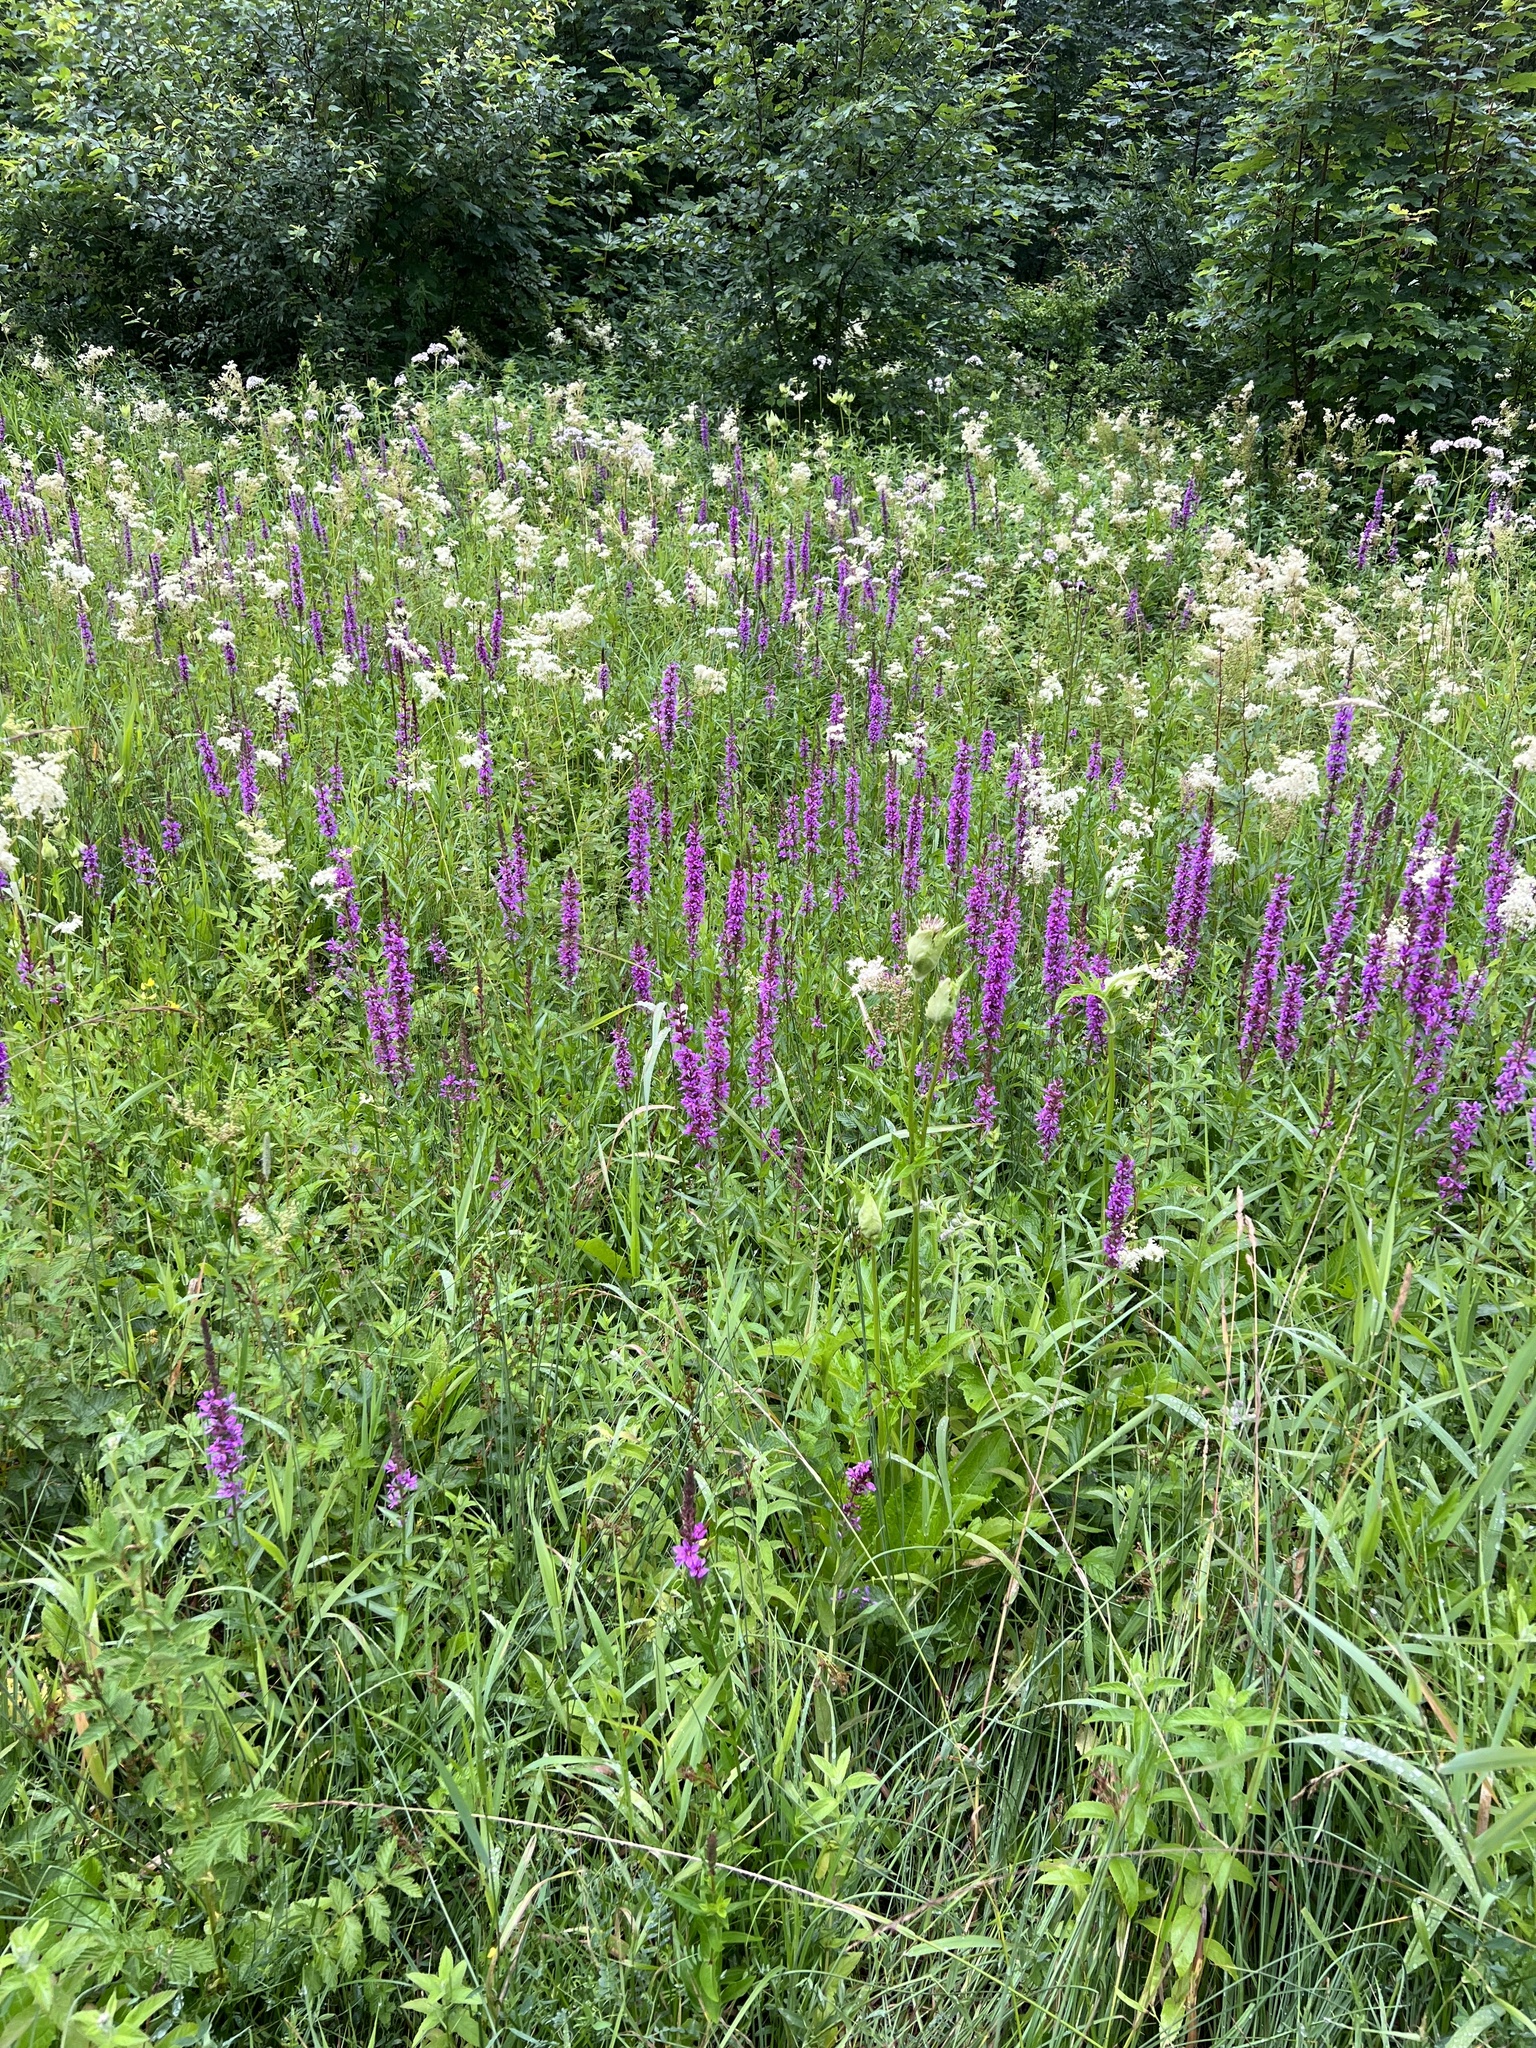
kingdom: Plantae
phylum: Tracheophyta
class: Magnoliopsida
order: Myrtales
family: Lythraceae
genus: Lythrum
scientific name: Lythrum salicaria
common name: Purple loosestrife
